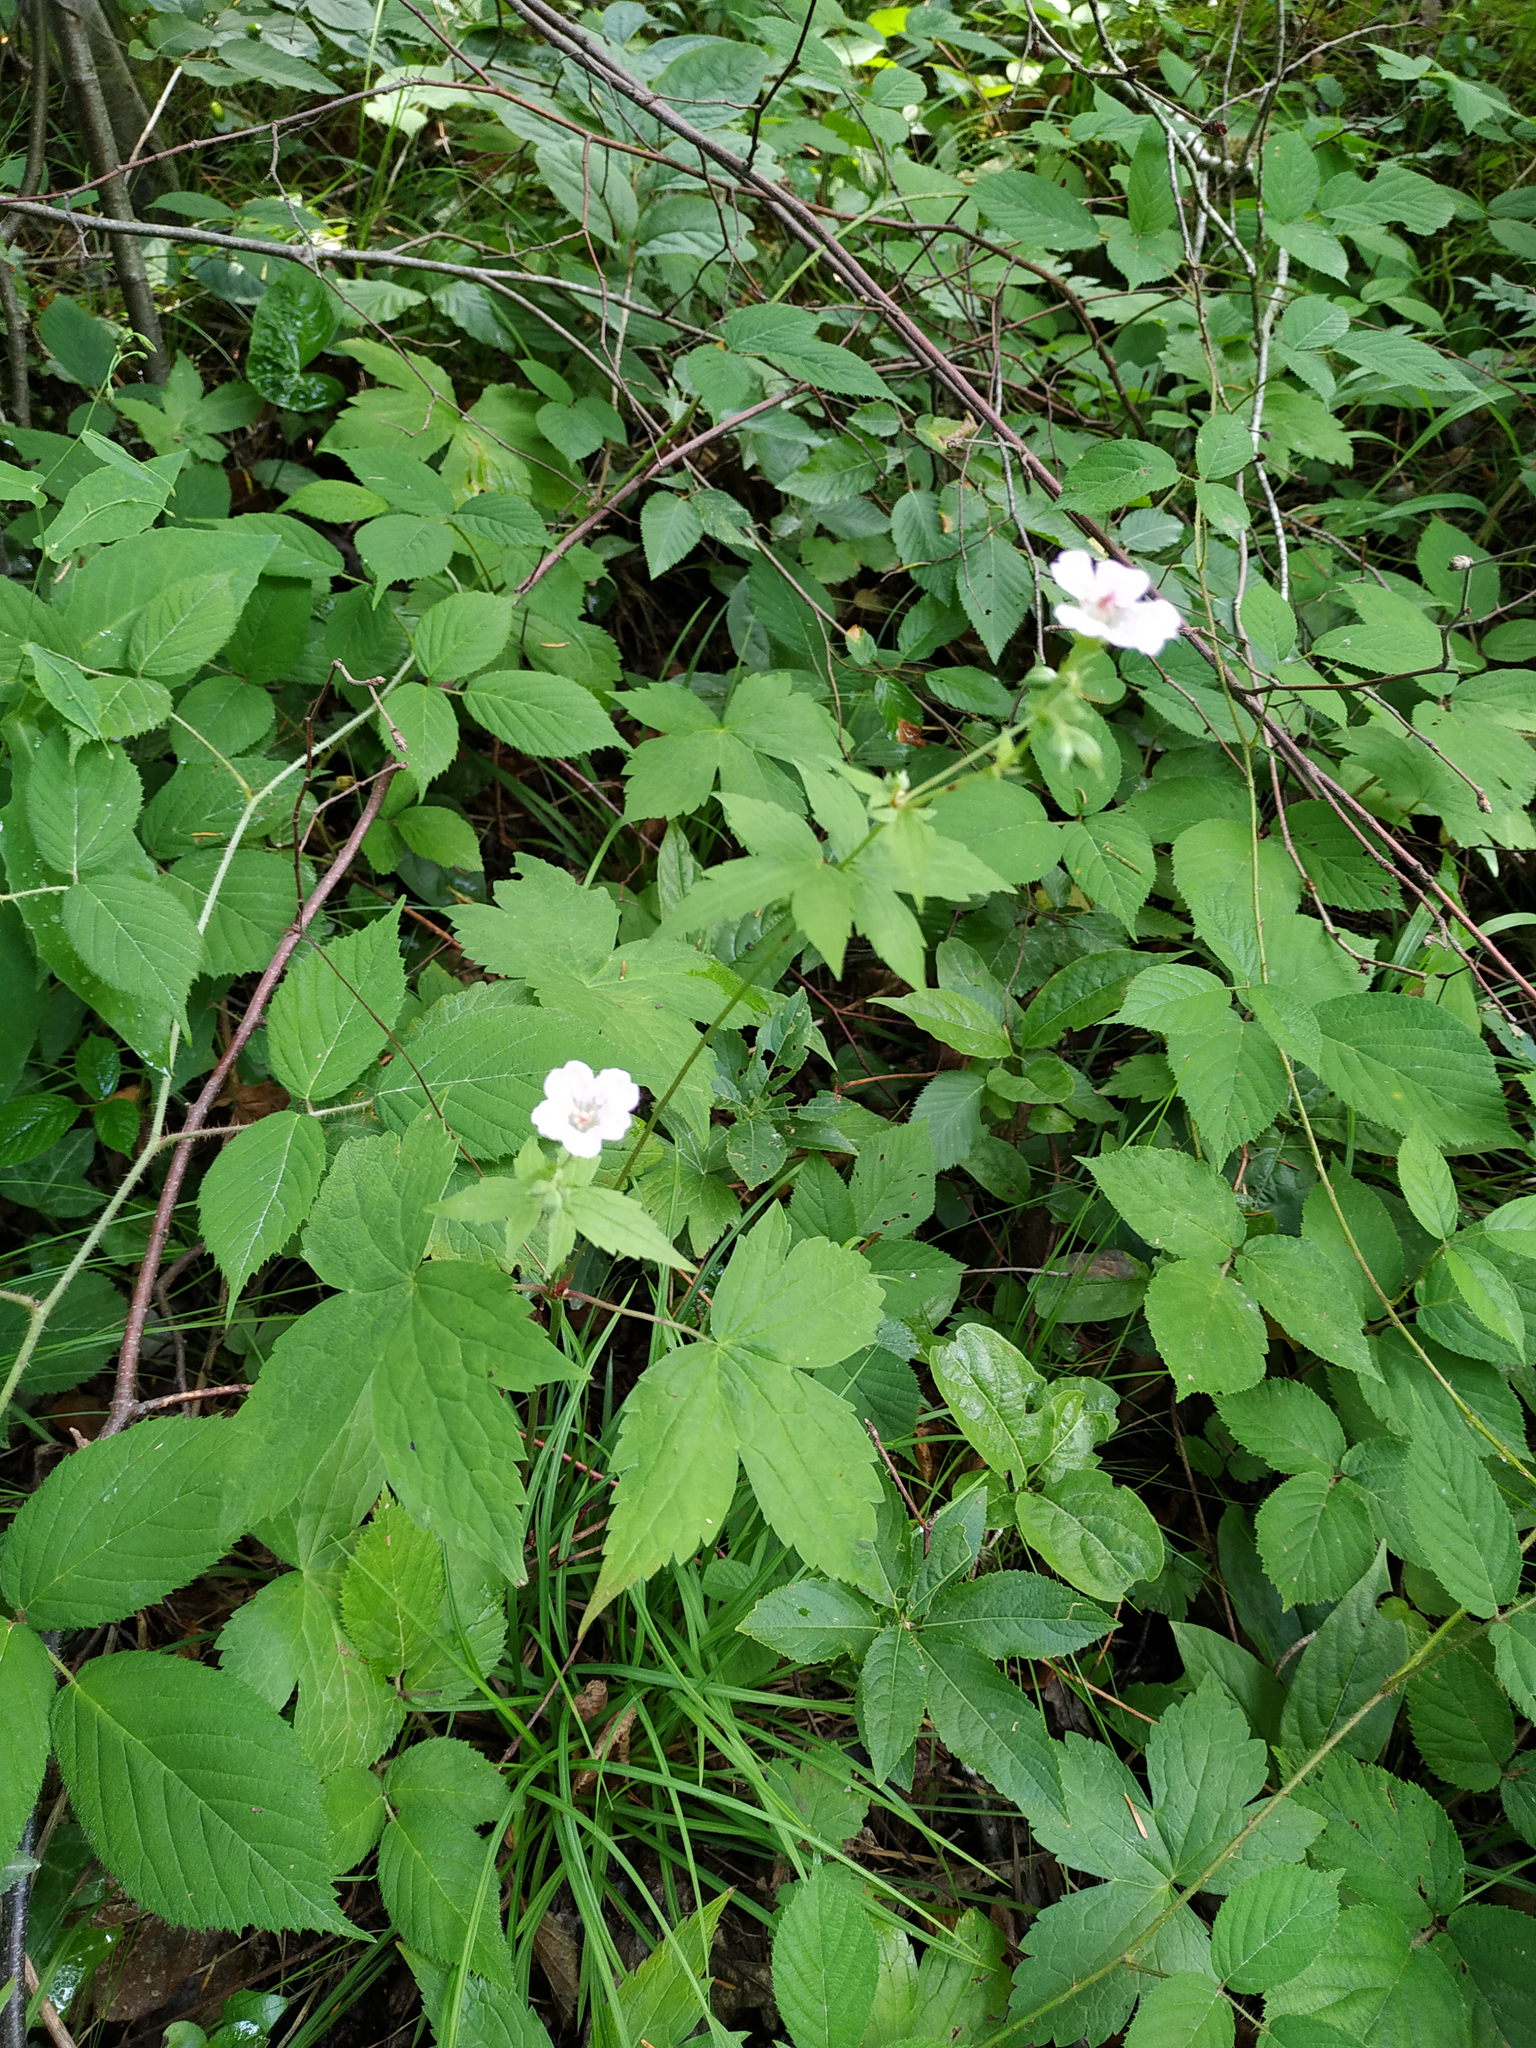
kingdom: Plantae
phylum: Tracheophyta
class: Magnoliopsida
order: Geraniales
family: Geraniaceae
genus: Geranium
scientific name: Geranium nodosum
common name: Knotted crane's-bill
